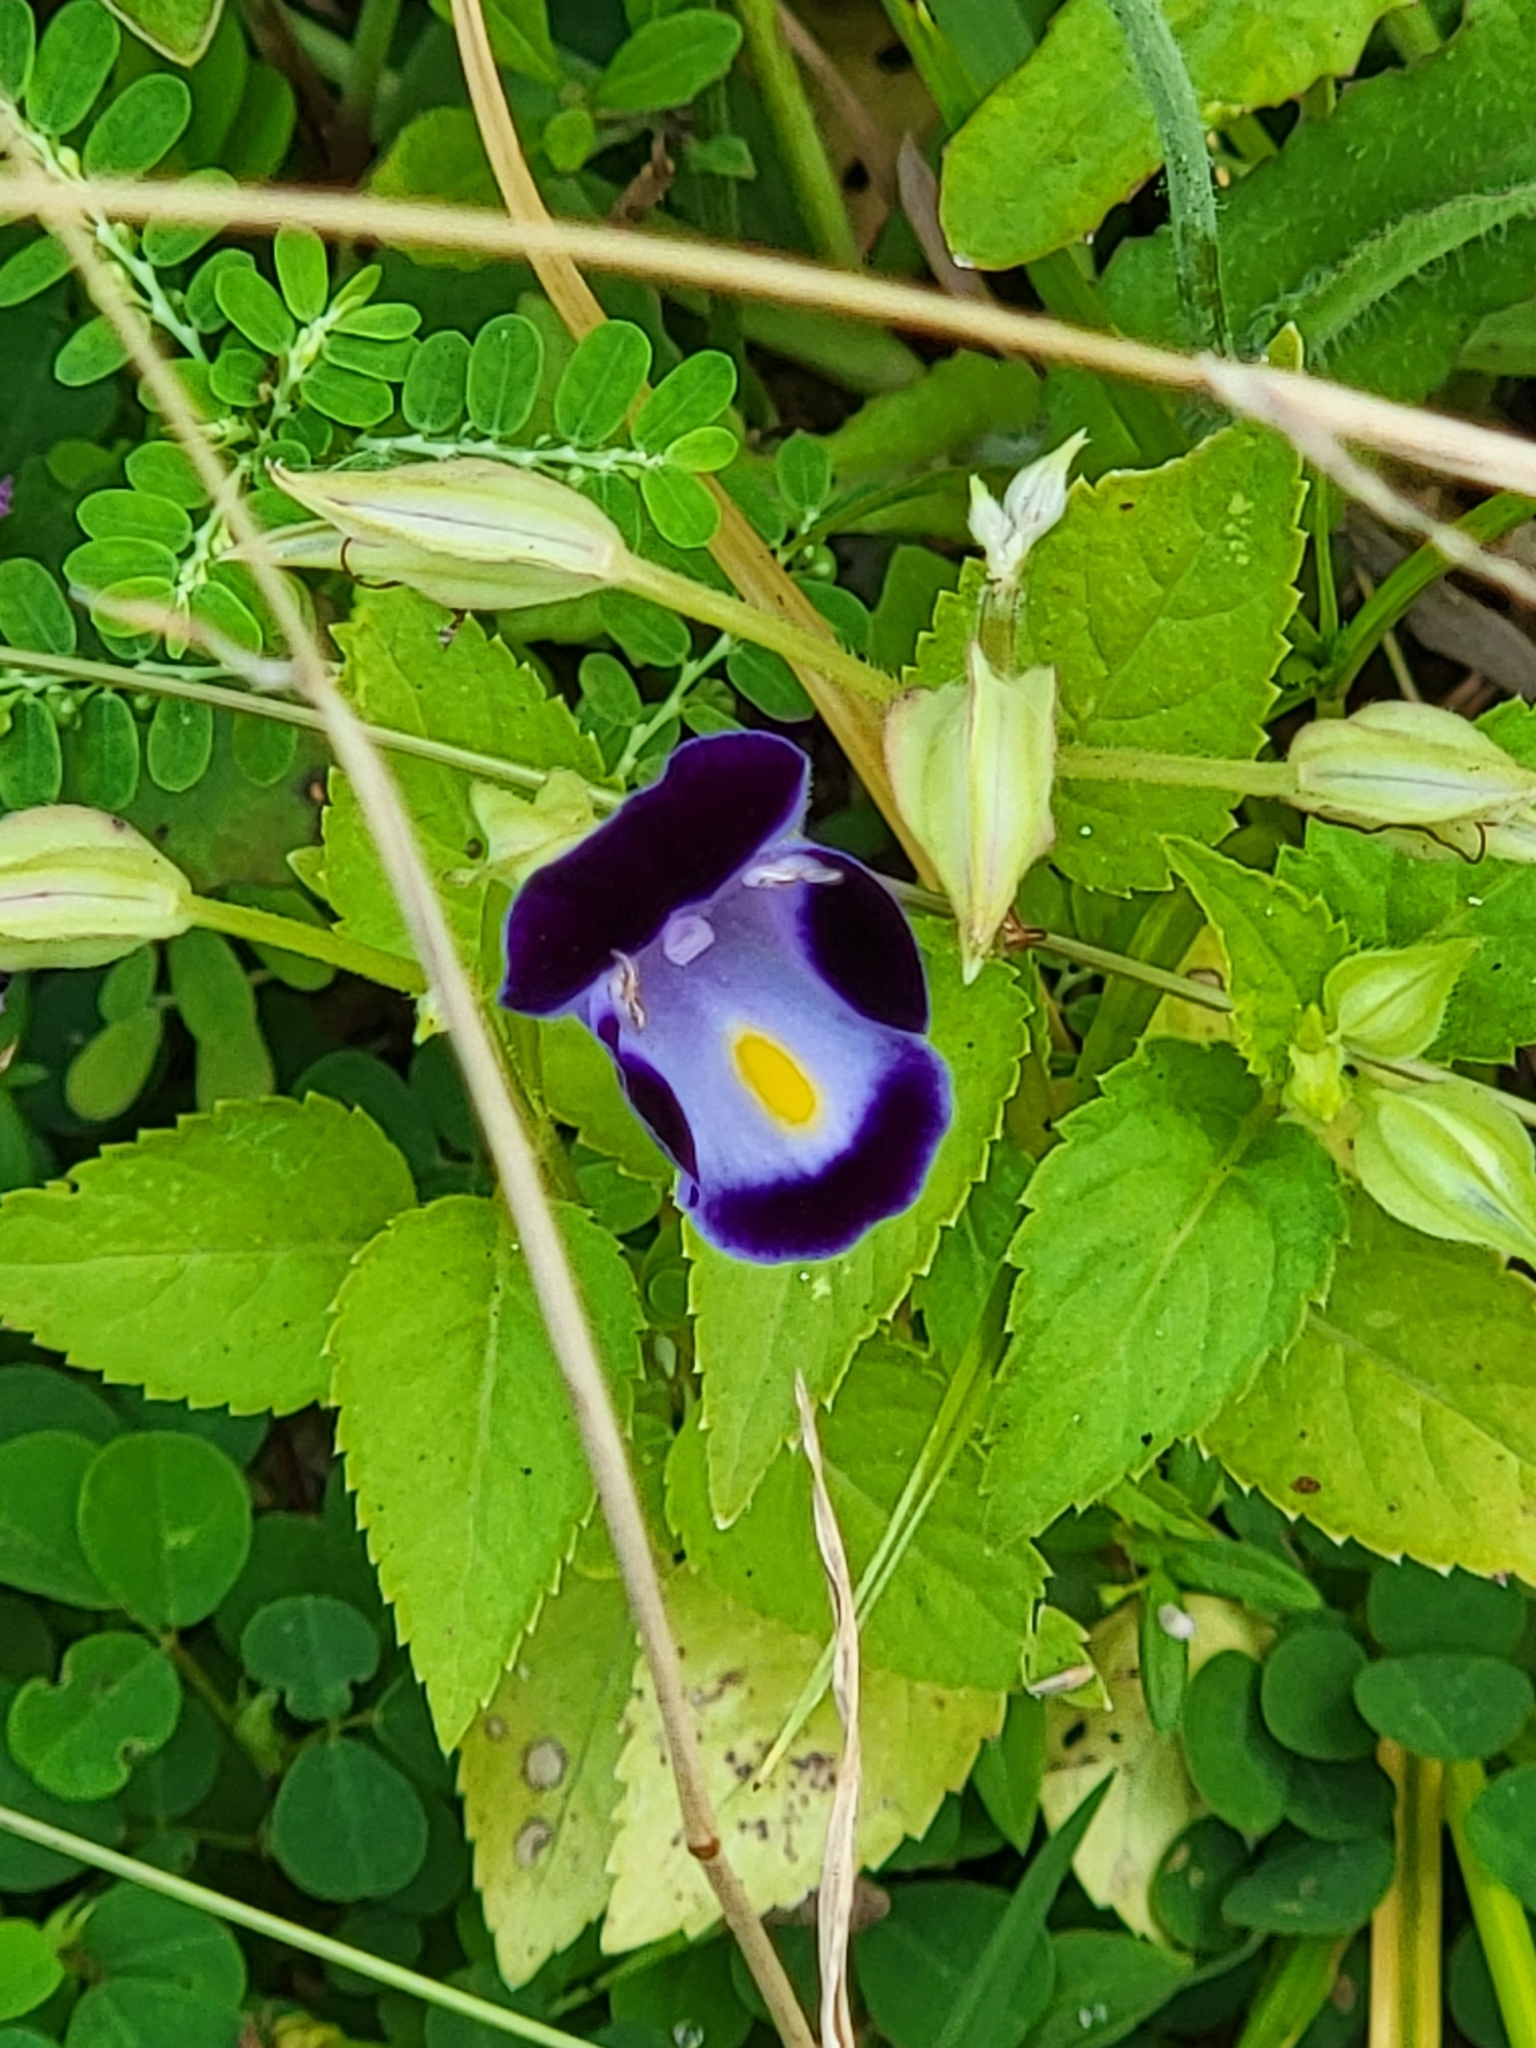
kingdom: Plantae
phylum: Tracheophyta
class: Magnoliopsida
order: Lamiales
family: Linderniaceae
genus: Torenia
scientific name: Torenia fournieri
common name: Bluewings
